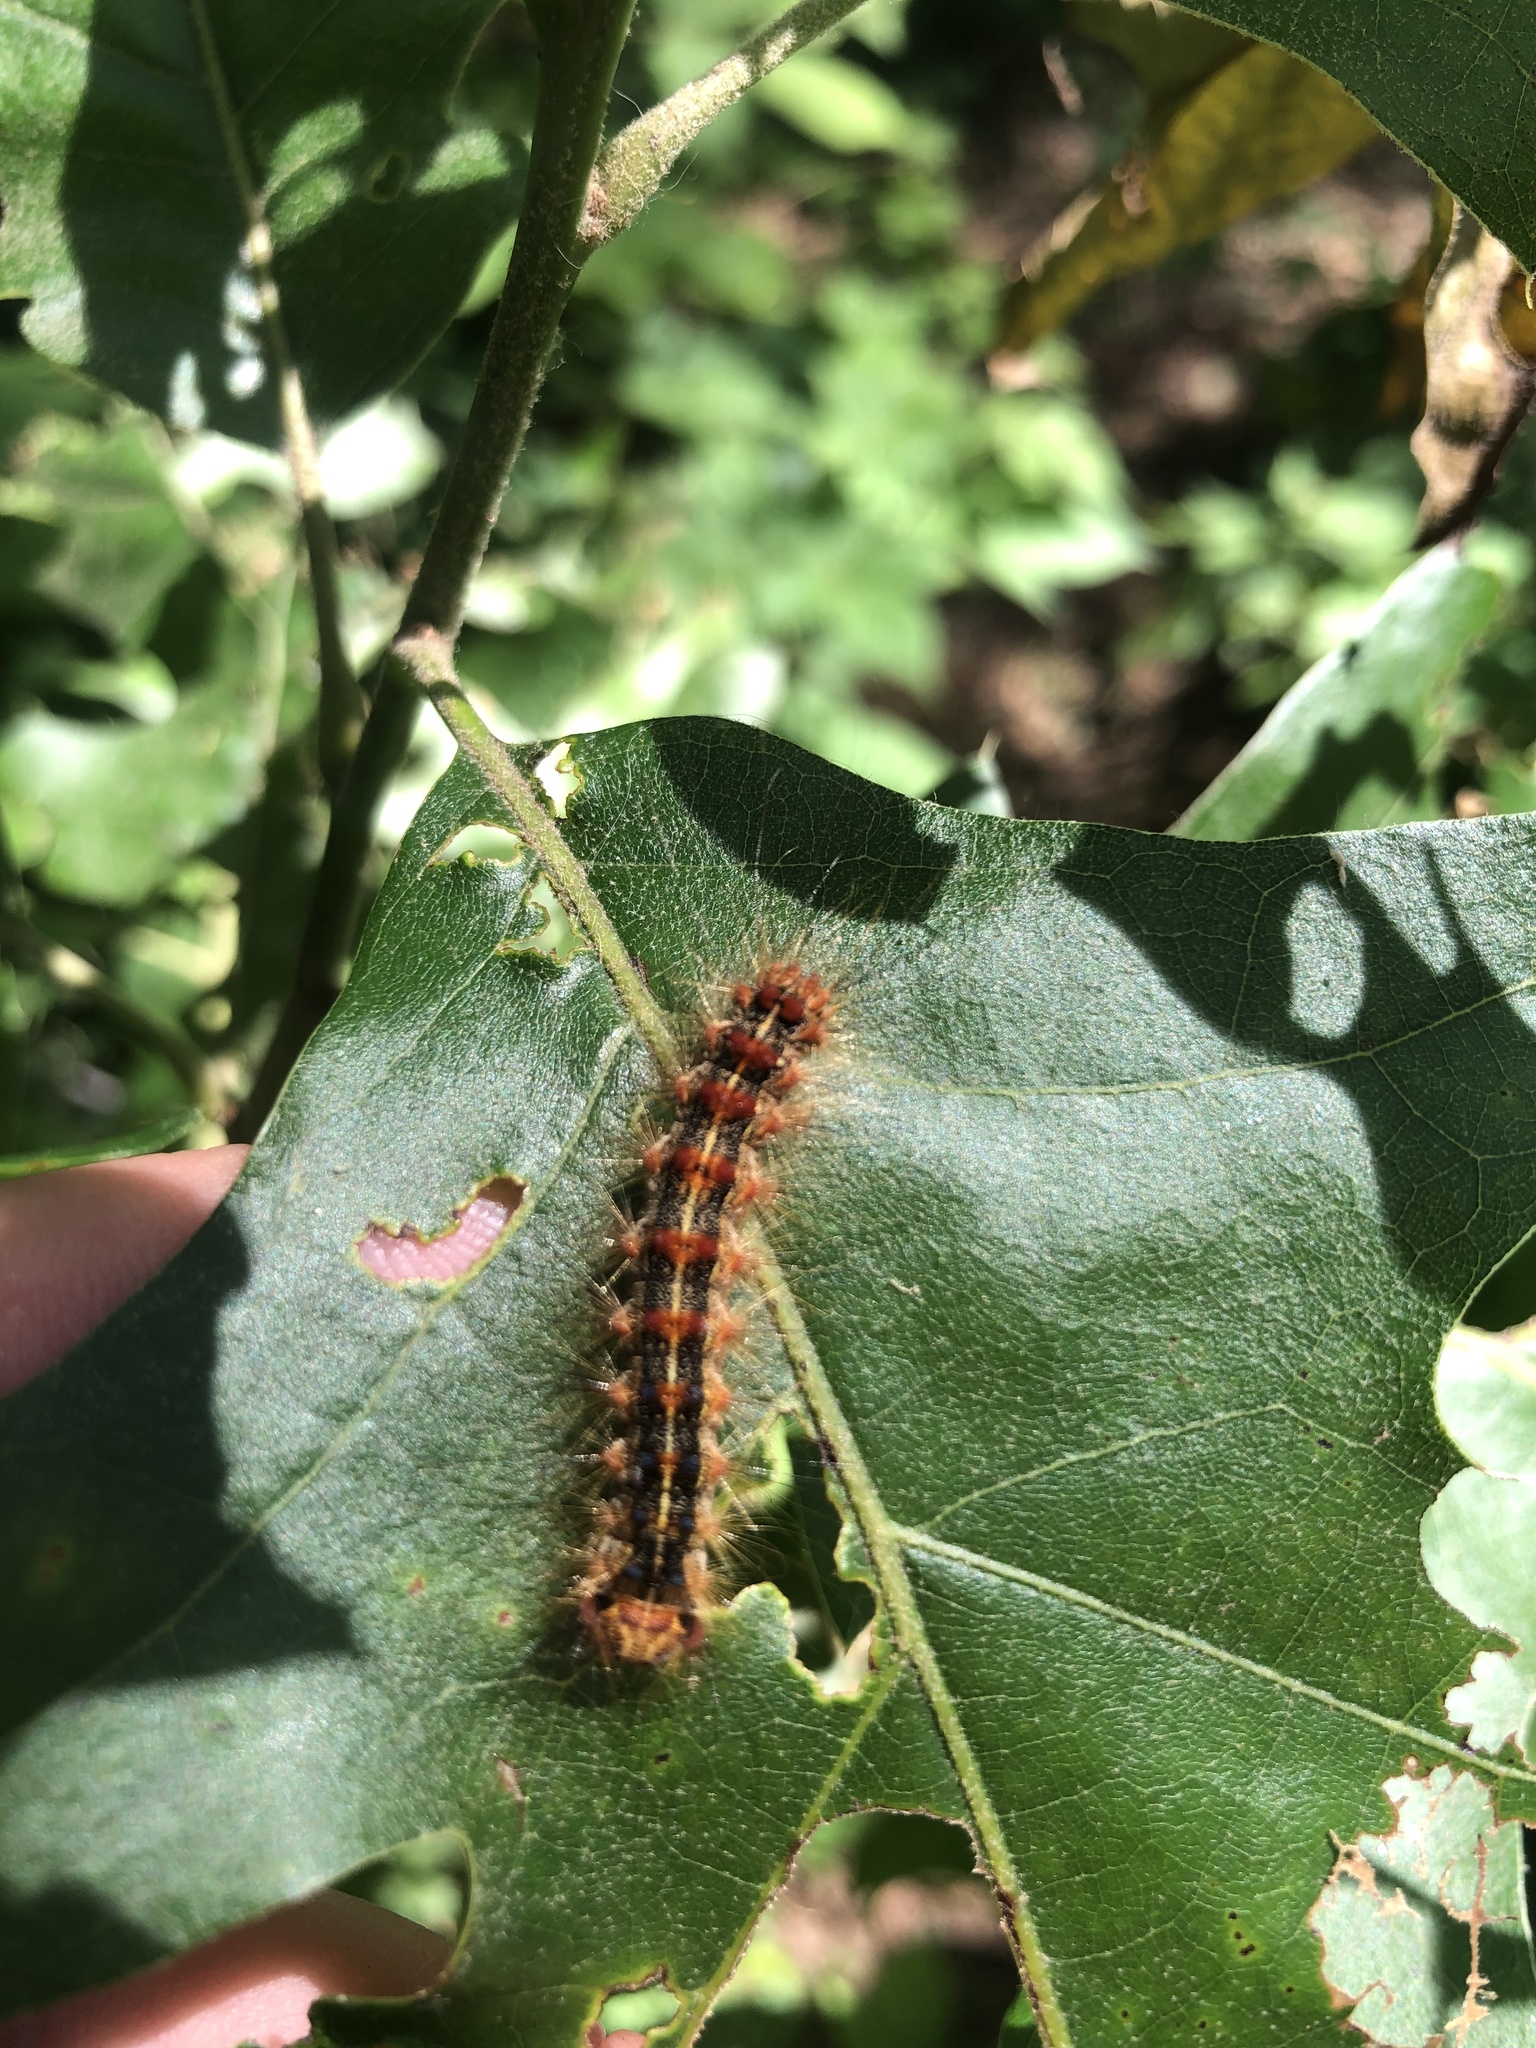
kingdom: Animalia
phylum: Arthropoda
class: Insecta
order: Lepidoptera
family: Erebidae
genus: Lymantria
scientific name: Lymantria dispar
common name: Gypsy moth
